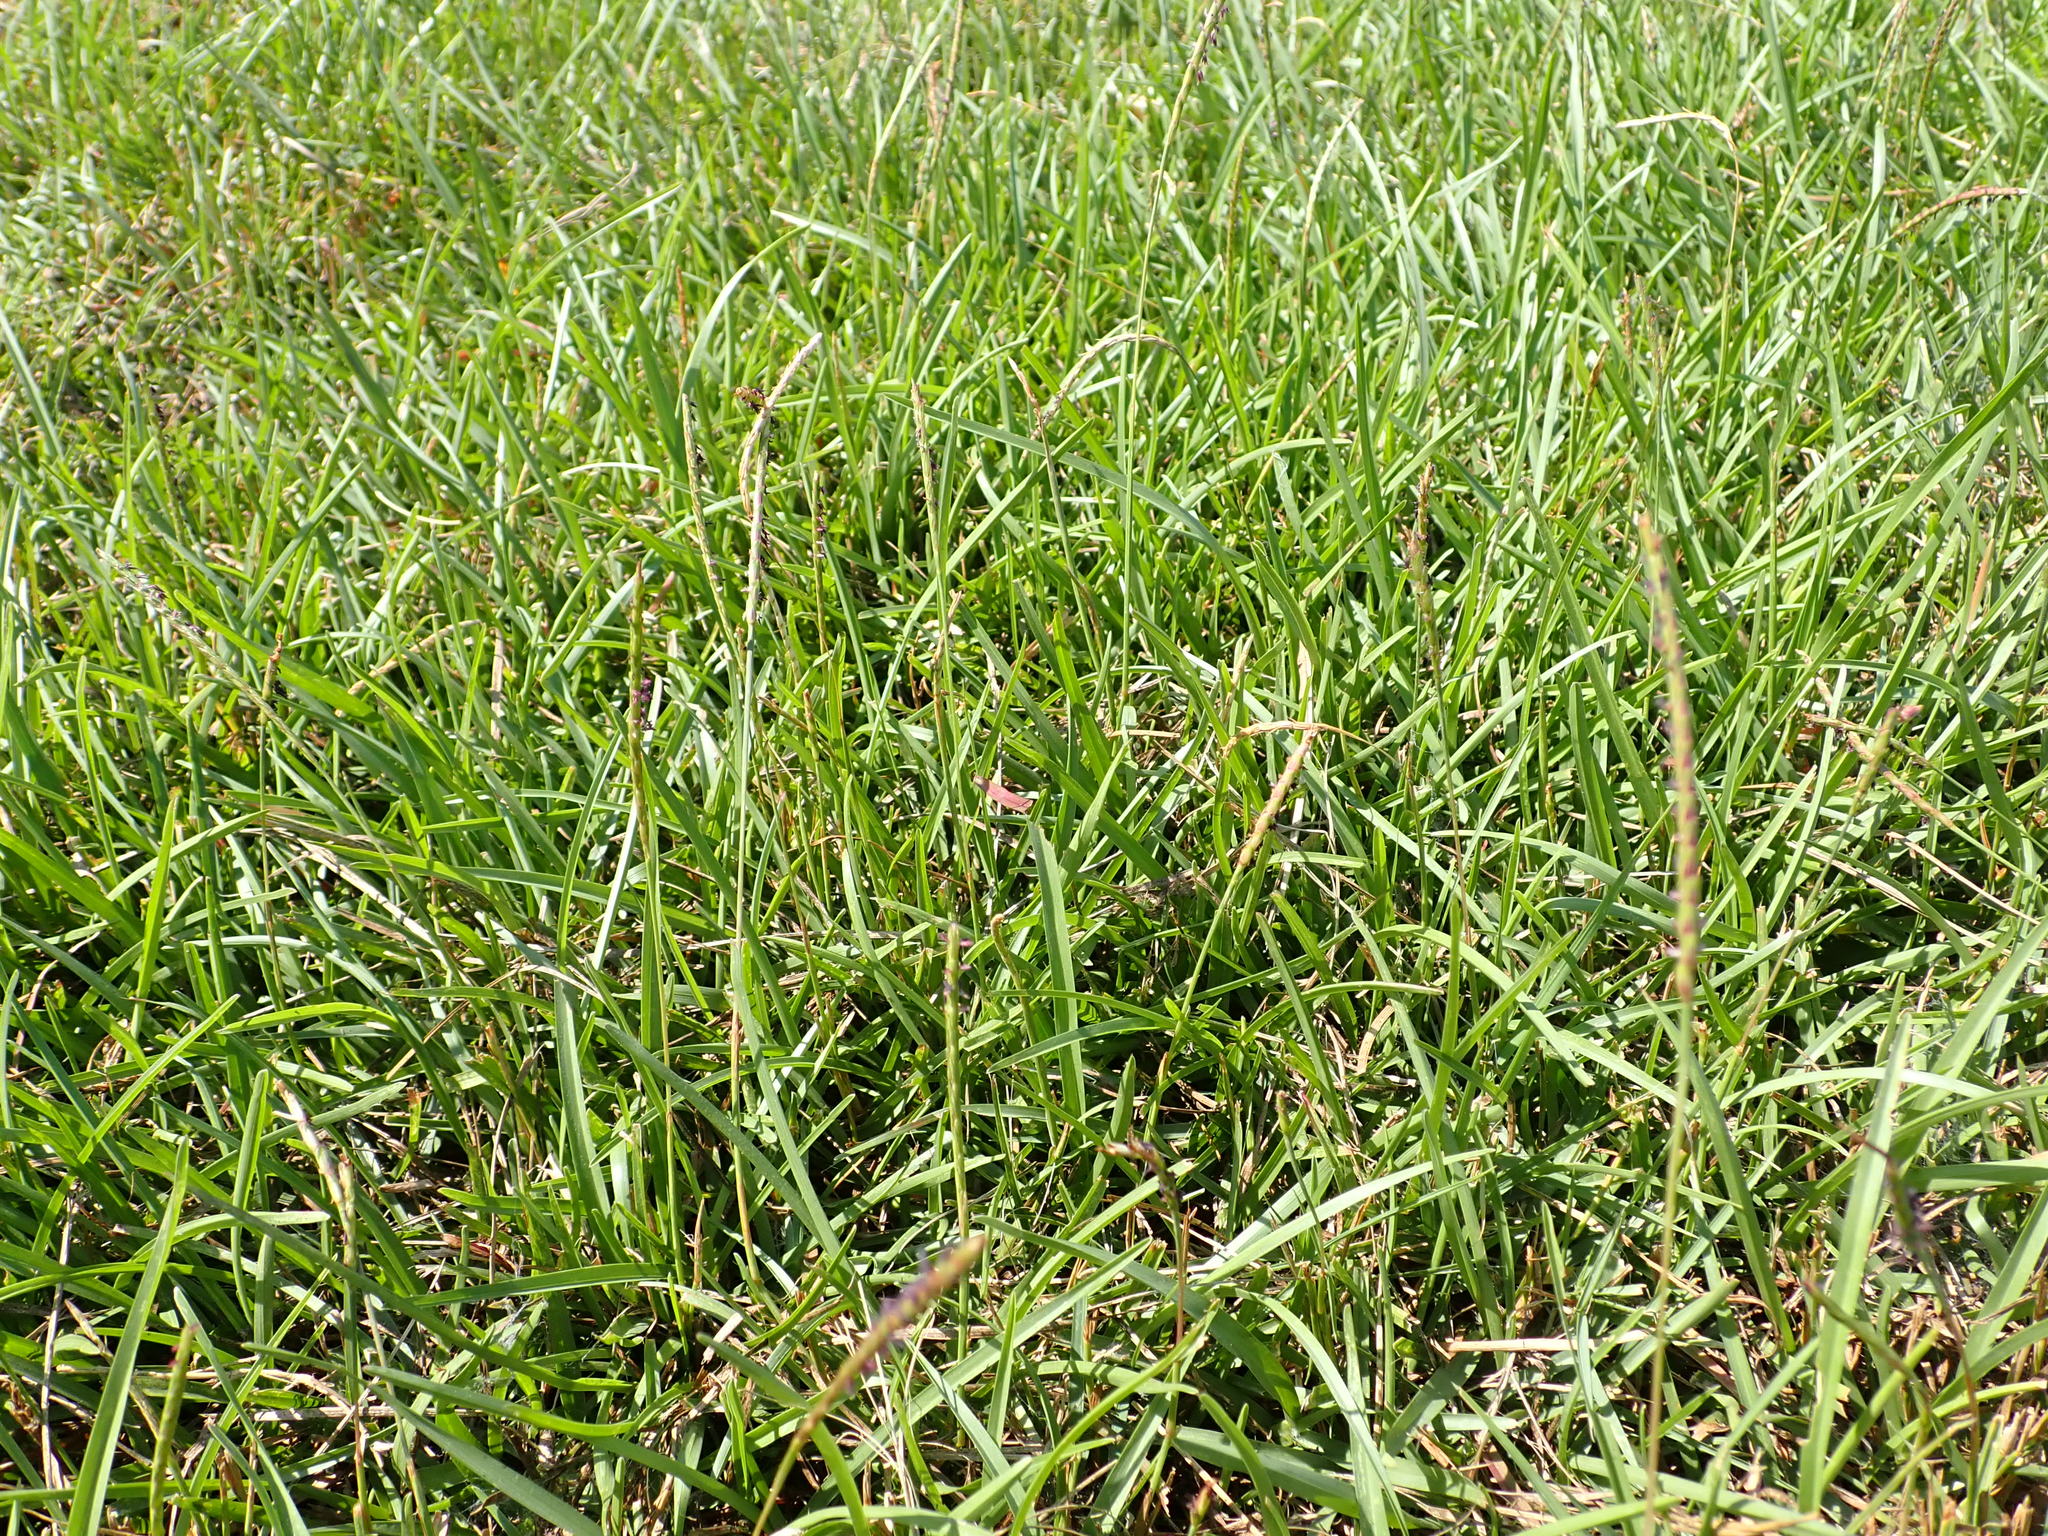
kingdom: Plantae
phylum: Tracheophyta
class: Liliopsida
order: Poales
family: Poaceae
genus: Eremochloa
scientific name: Eremochloa ophiuroides
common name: Centipede grass
